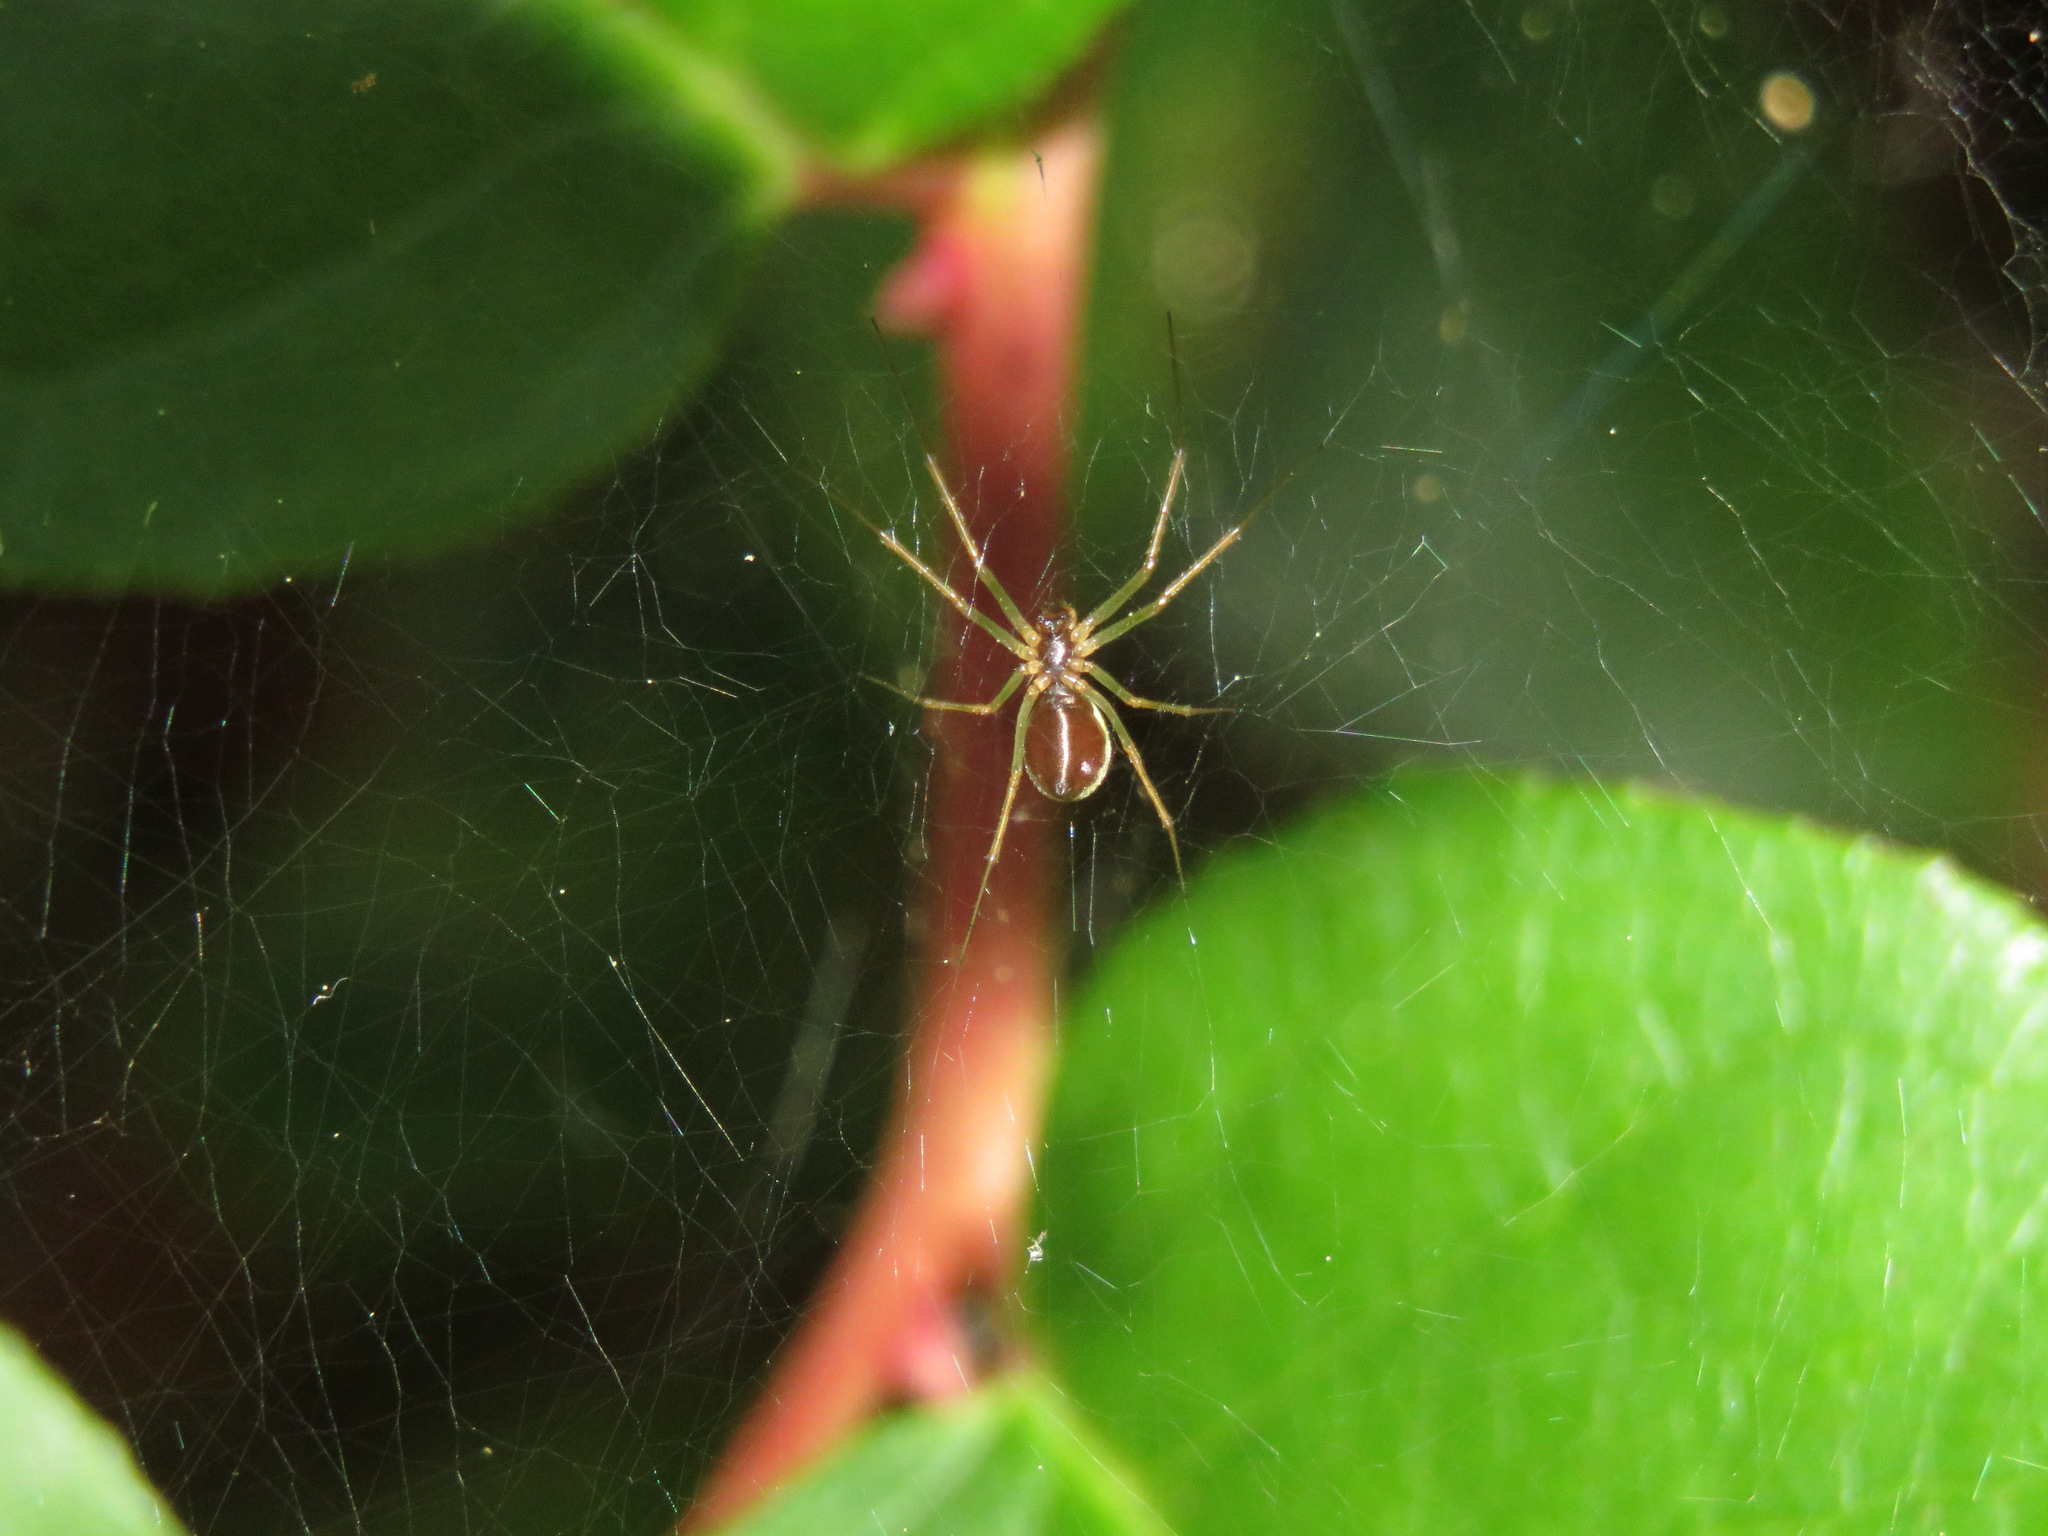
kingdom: Animalia
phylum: Arthropoda
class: Arachnida
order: Araneae
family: Linyphiidae
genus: Microlinyphia
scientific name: Microlinyphia dana
